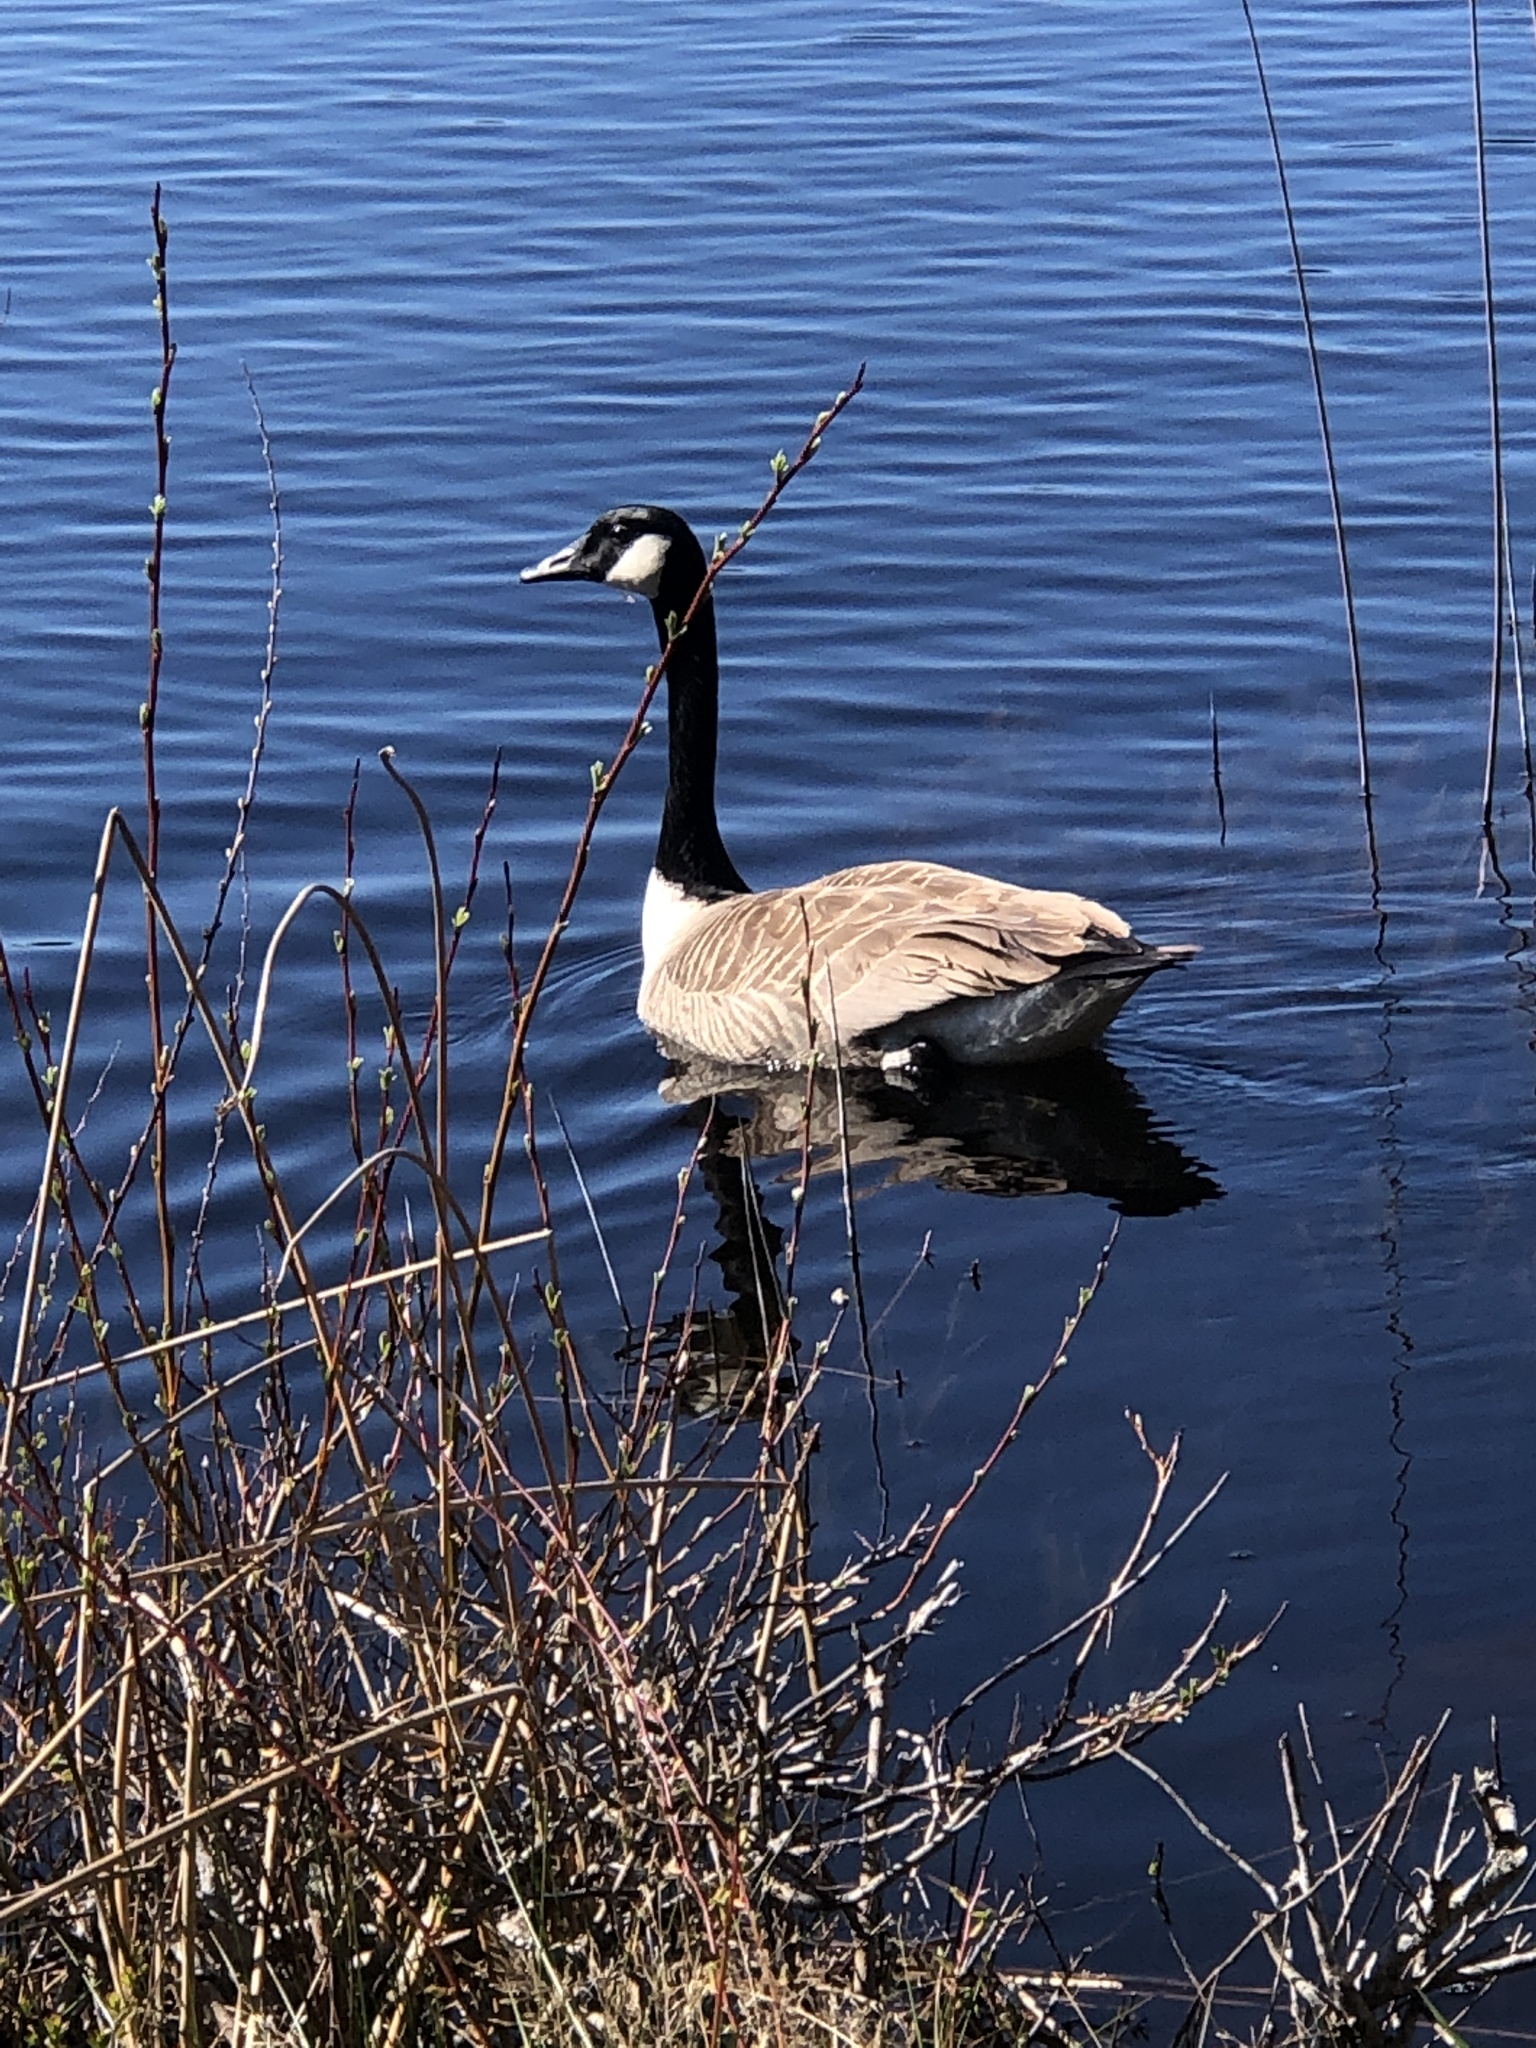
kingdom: Animalia
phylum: Chordata
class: Aves
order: Anseriformes
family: Anatidae
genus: Branta
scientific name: Branta canadensis
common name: Canada goose
